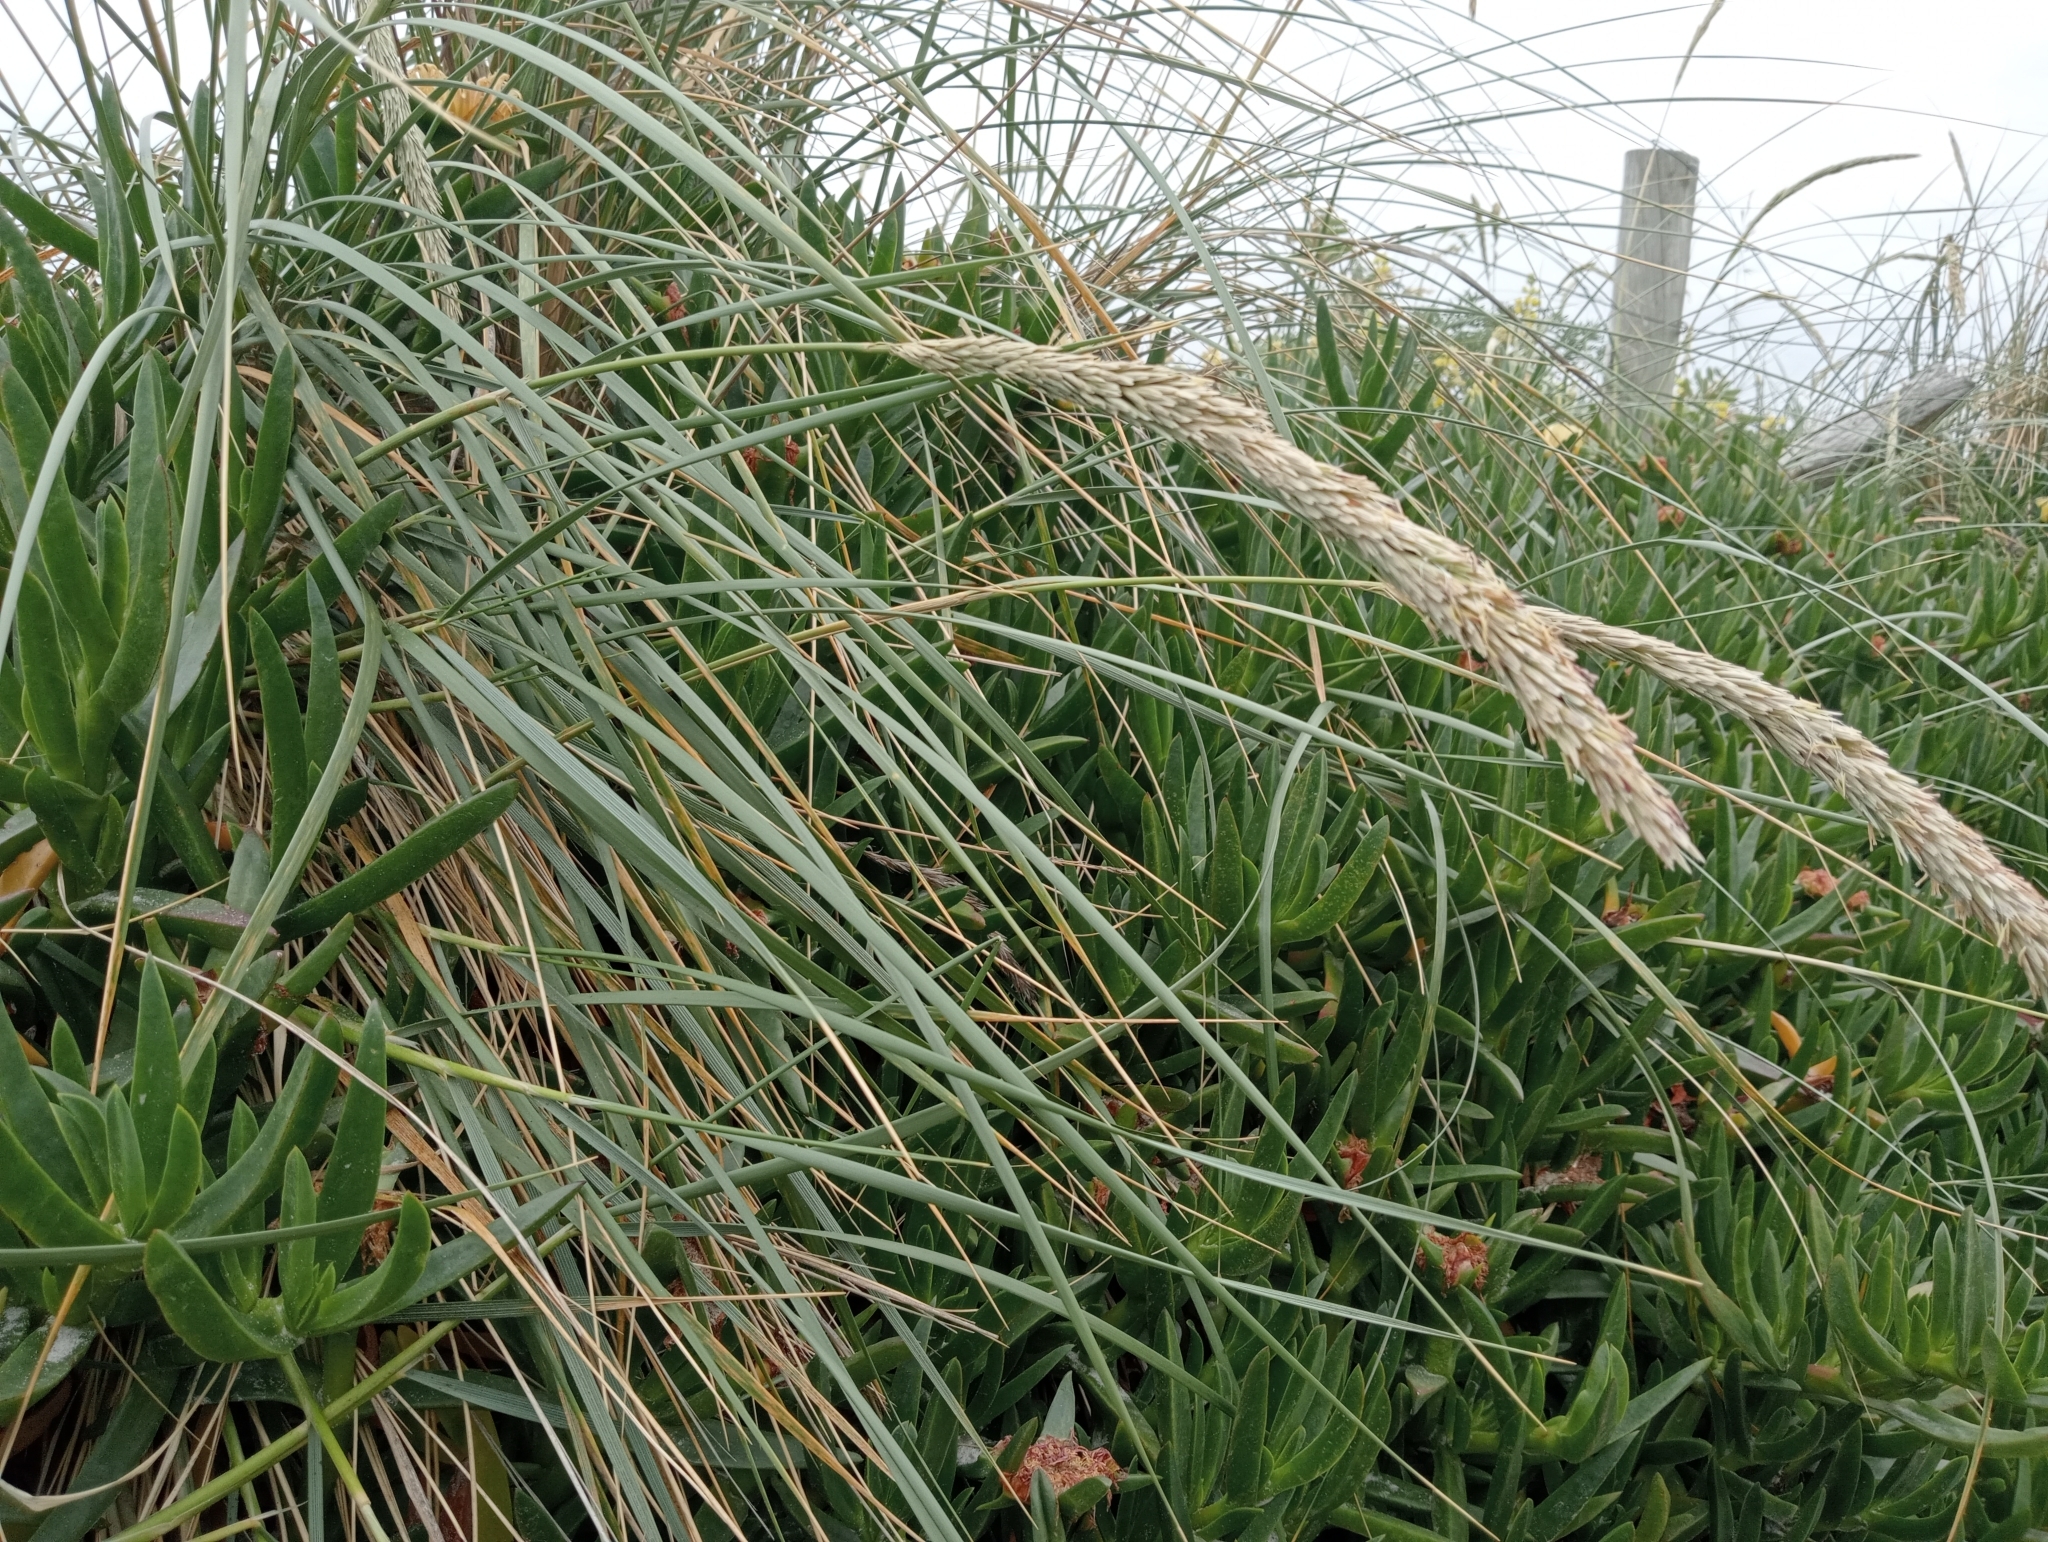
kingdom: Plantae
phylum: Tracheophyta
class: Liliopsida
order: Poales
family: Poaceae
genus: Calamagrostis
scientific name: Calamagrostis arenaria
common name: European beachgrass
